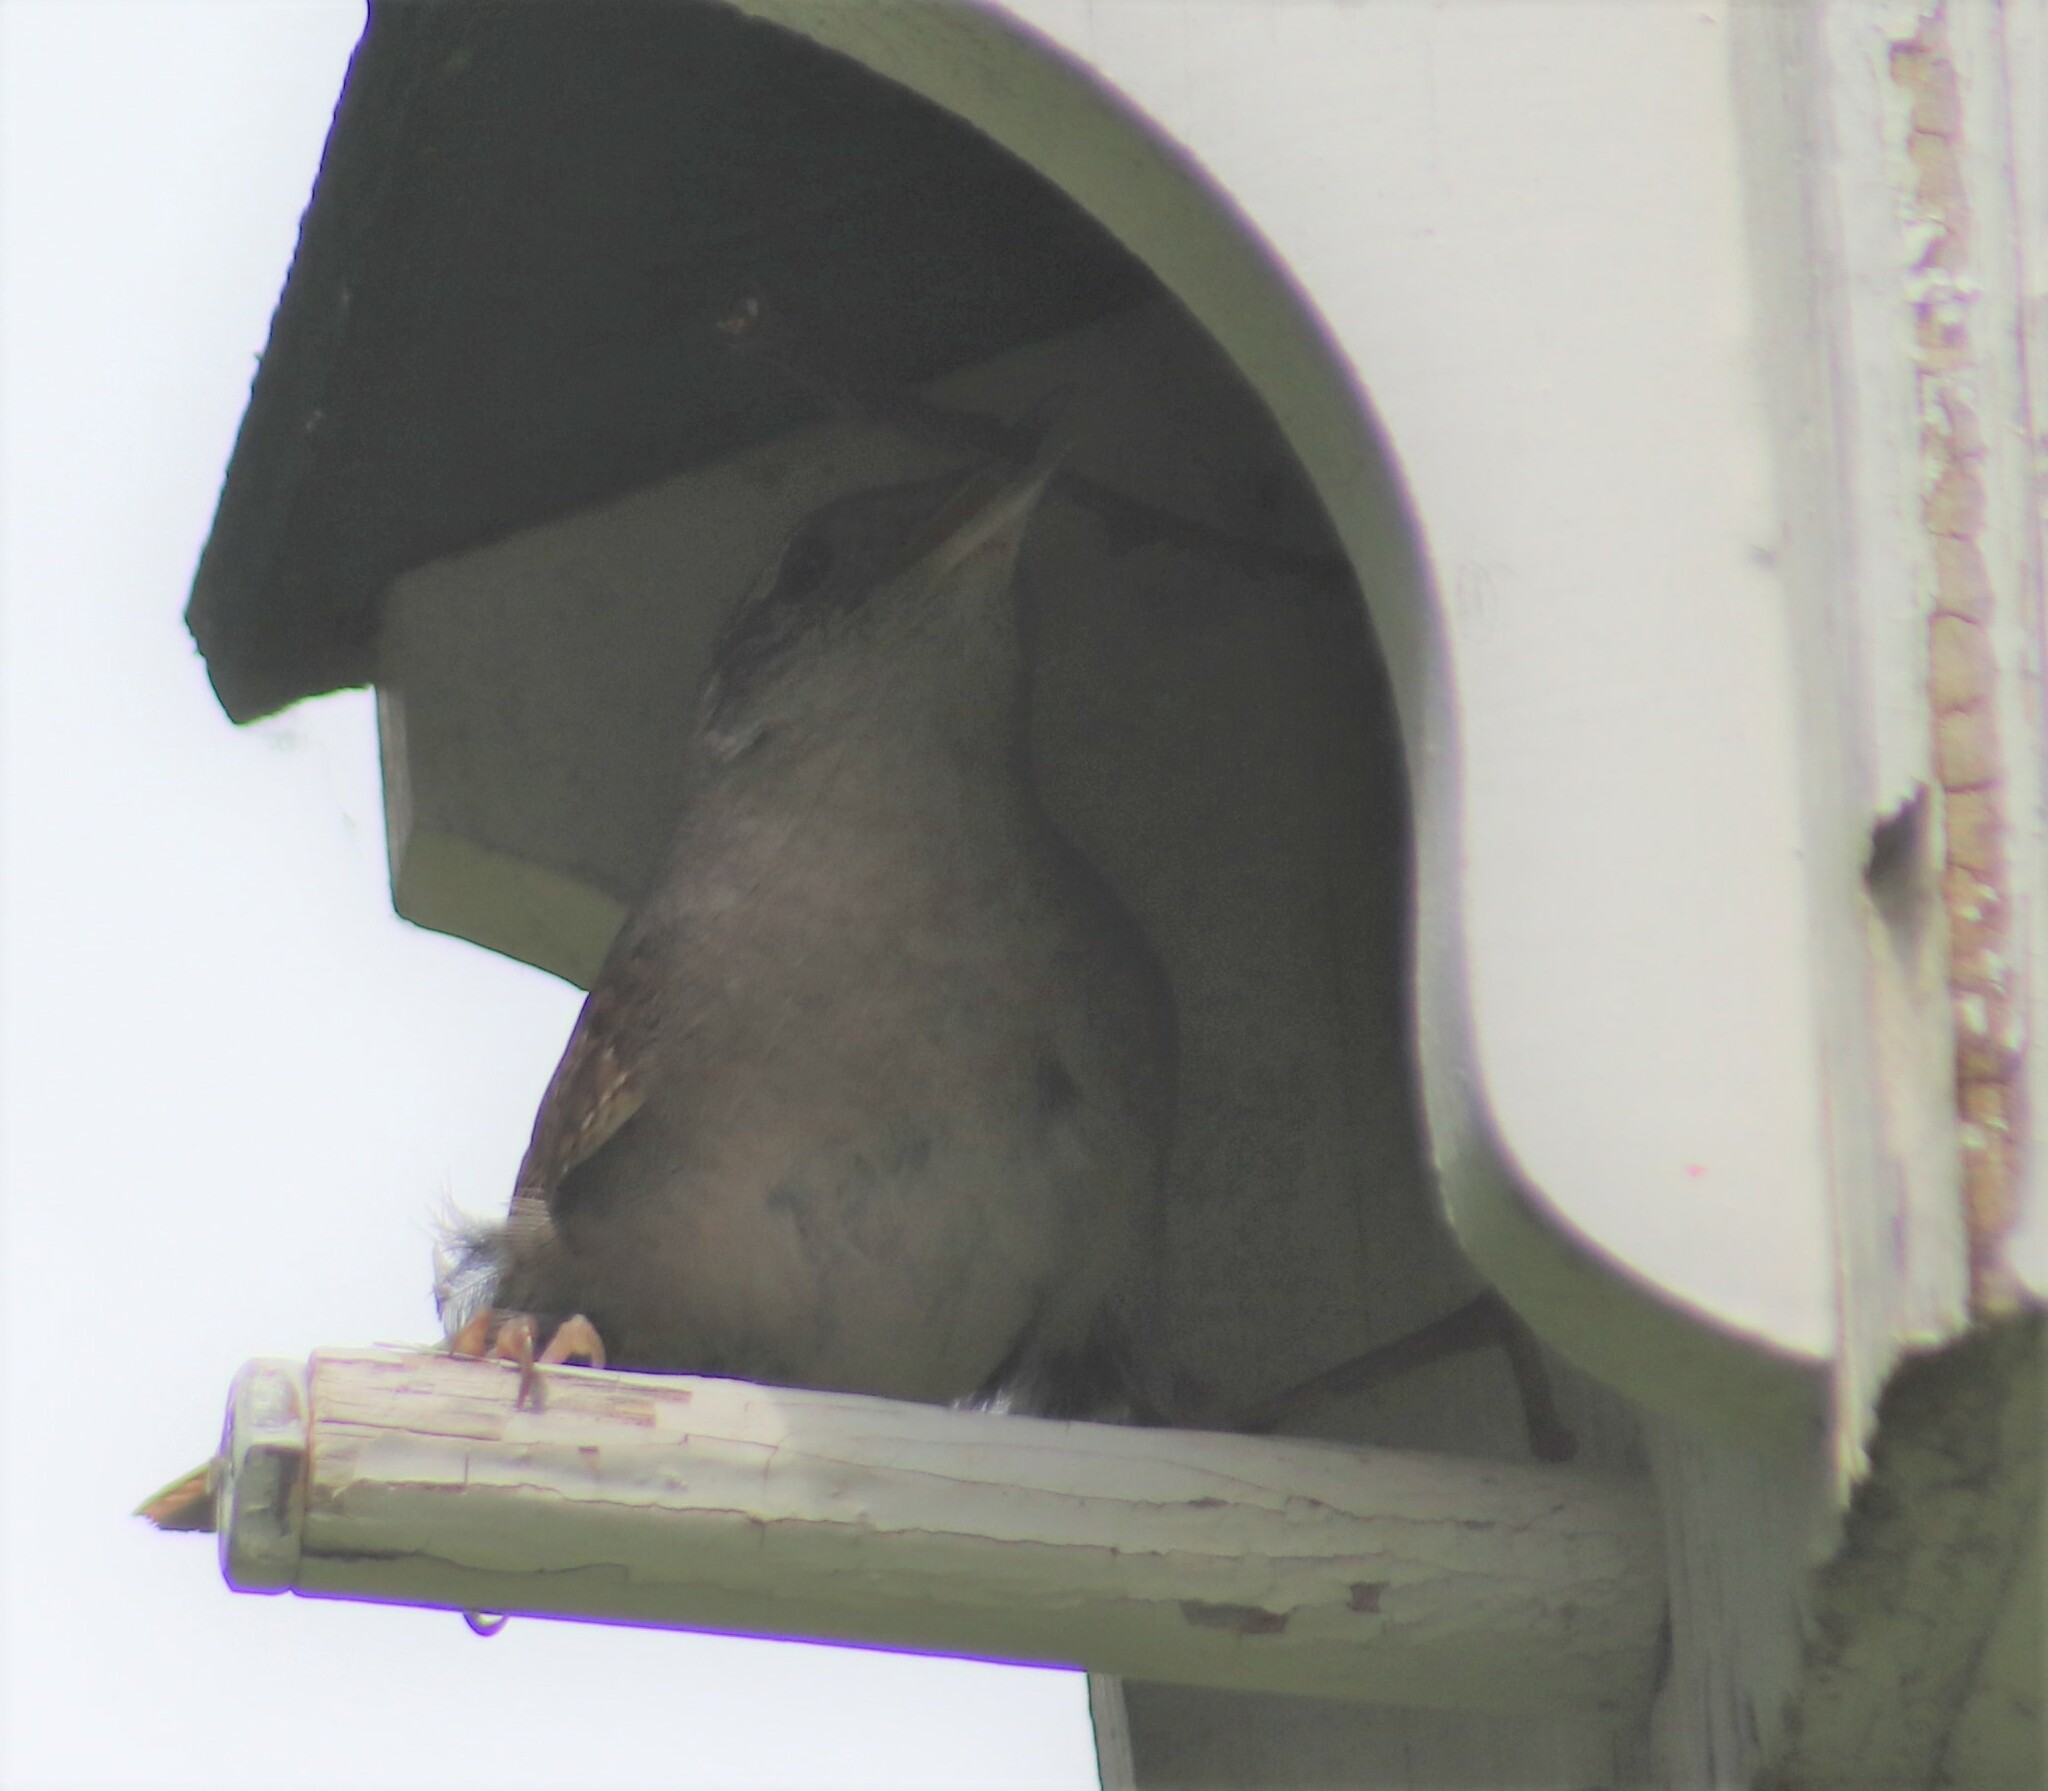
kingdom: Animalia
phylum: Chordata
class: Aves
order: Passeriformes
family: Troglodytidae
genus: Troglodytes
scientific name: Troglodytes aedon
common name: House wren
